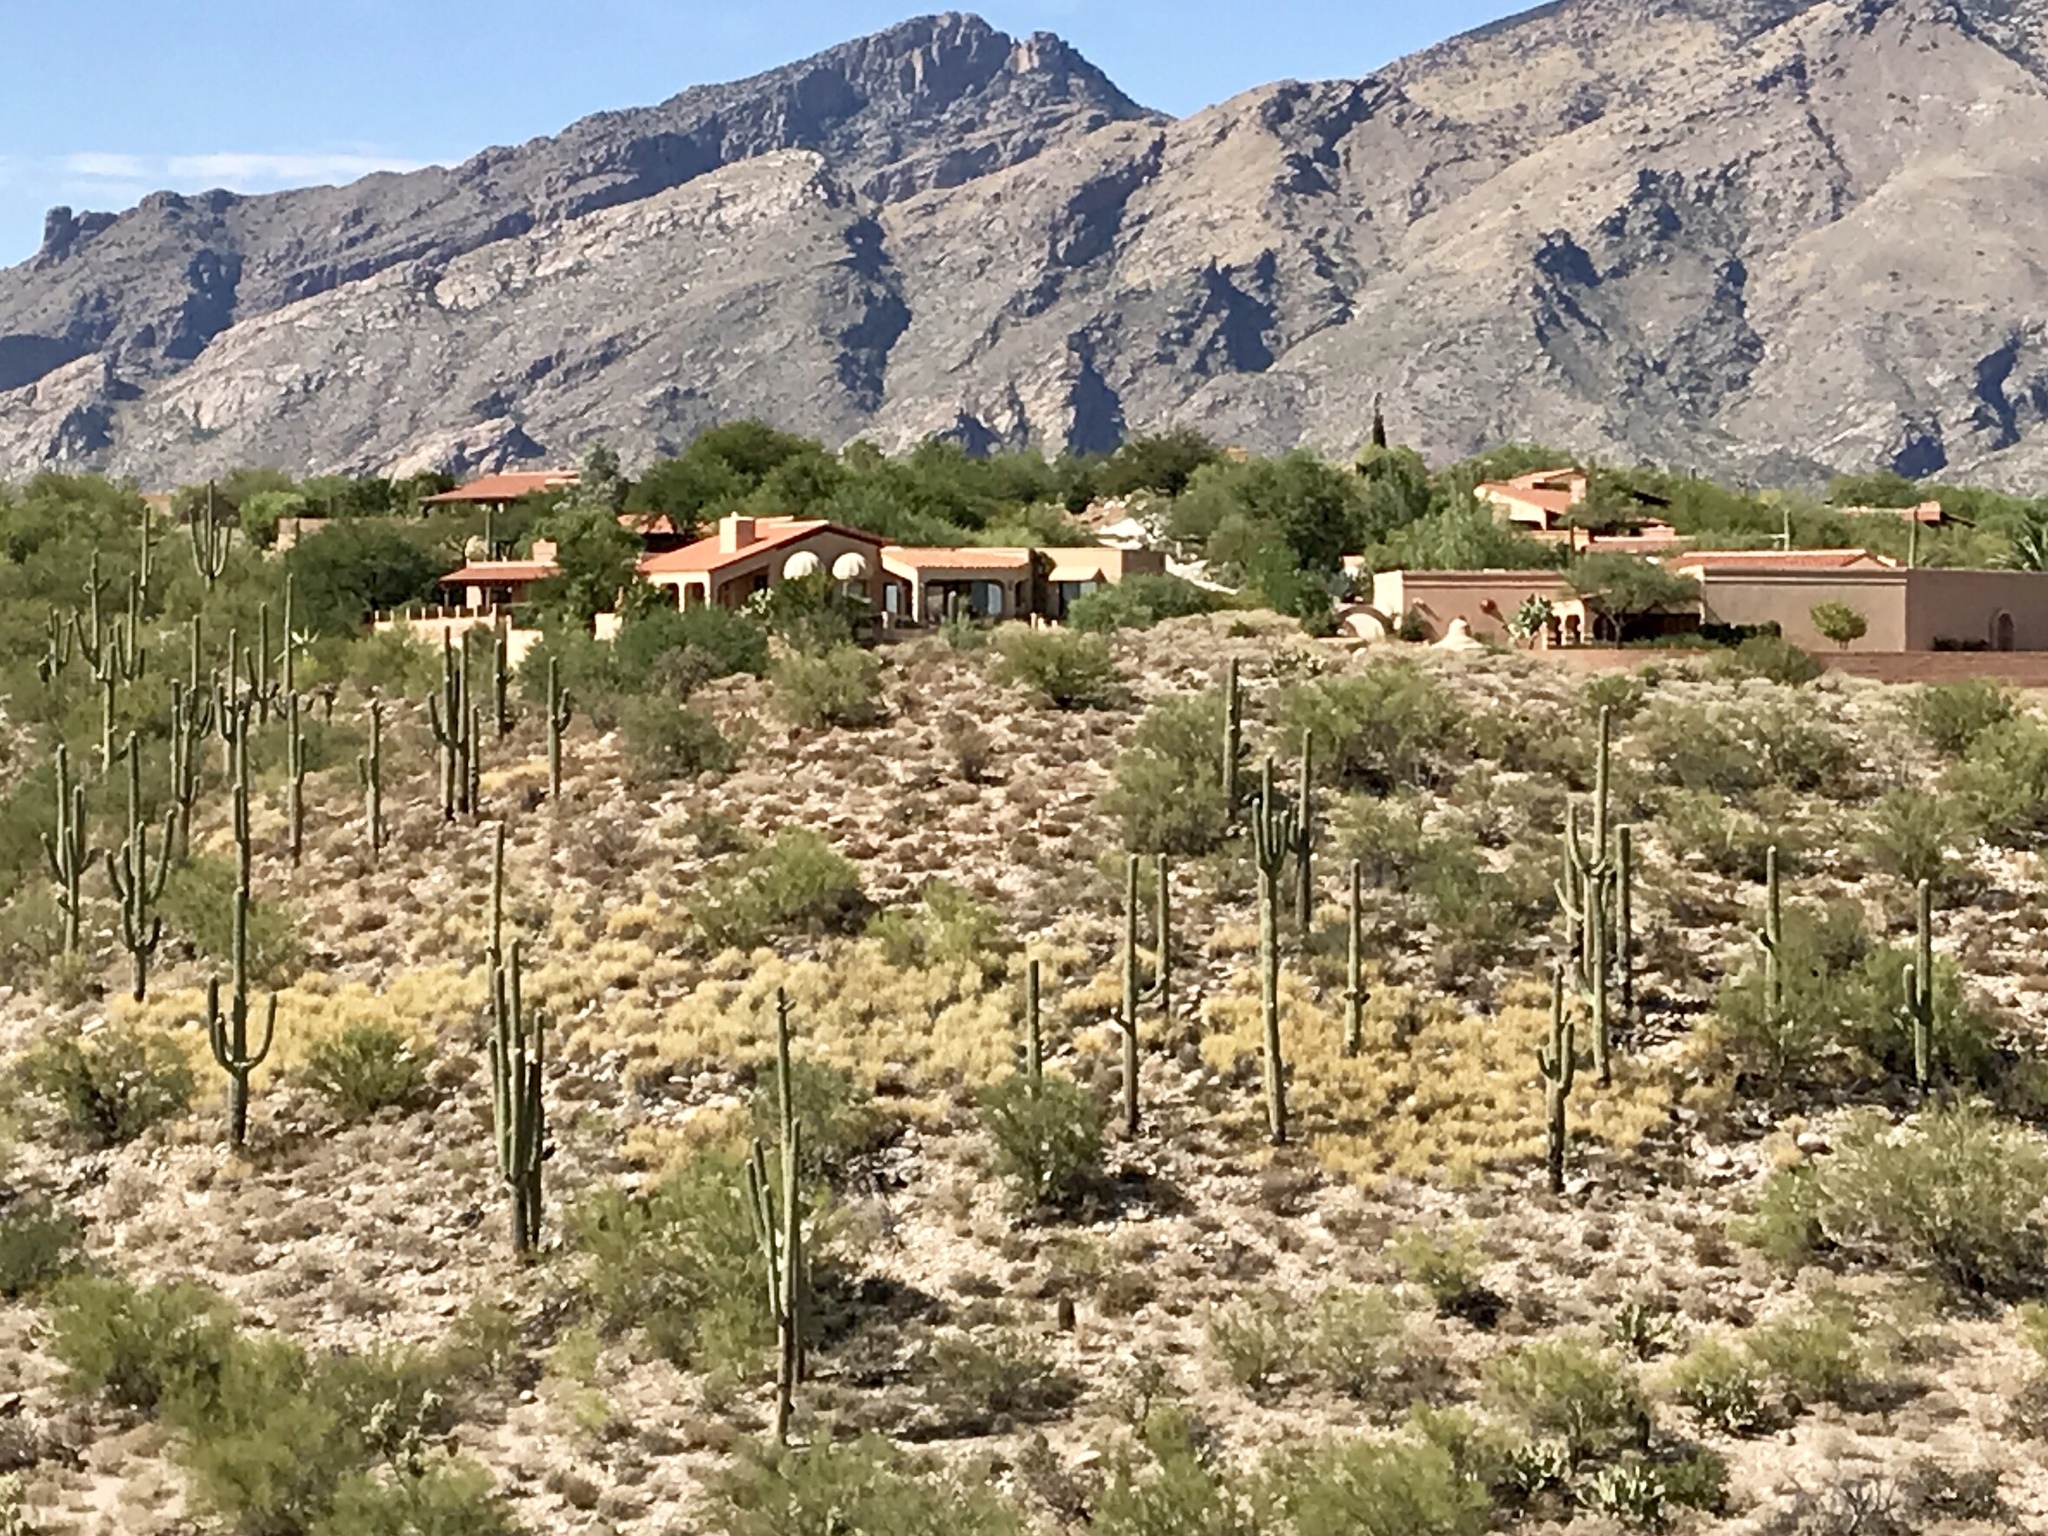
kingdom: Plantae
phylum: Tracheophyta
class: Magnoliopsida
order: Caryophyllales
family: Cactaceae
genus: Carnegiea
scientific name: Carnegiea gigantea
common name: Saguaro
